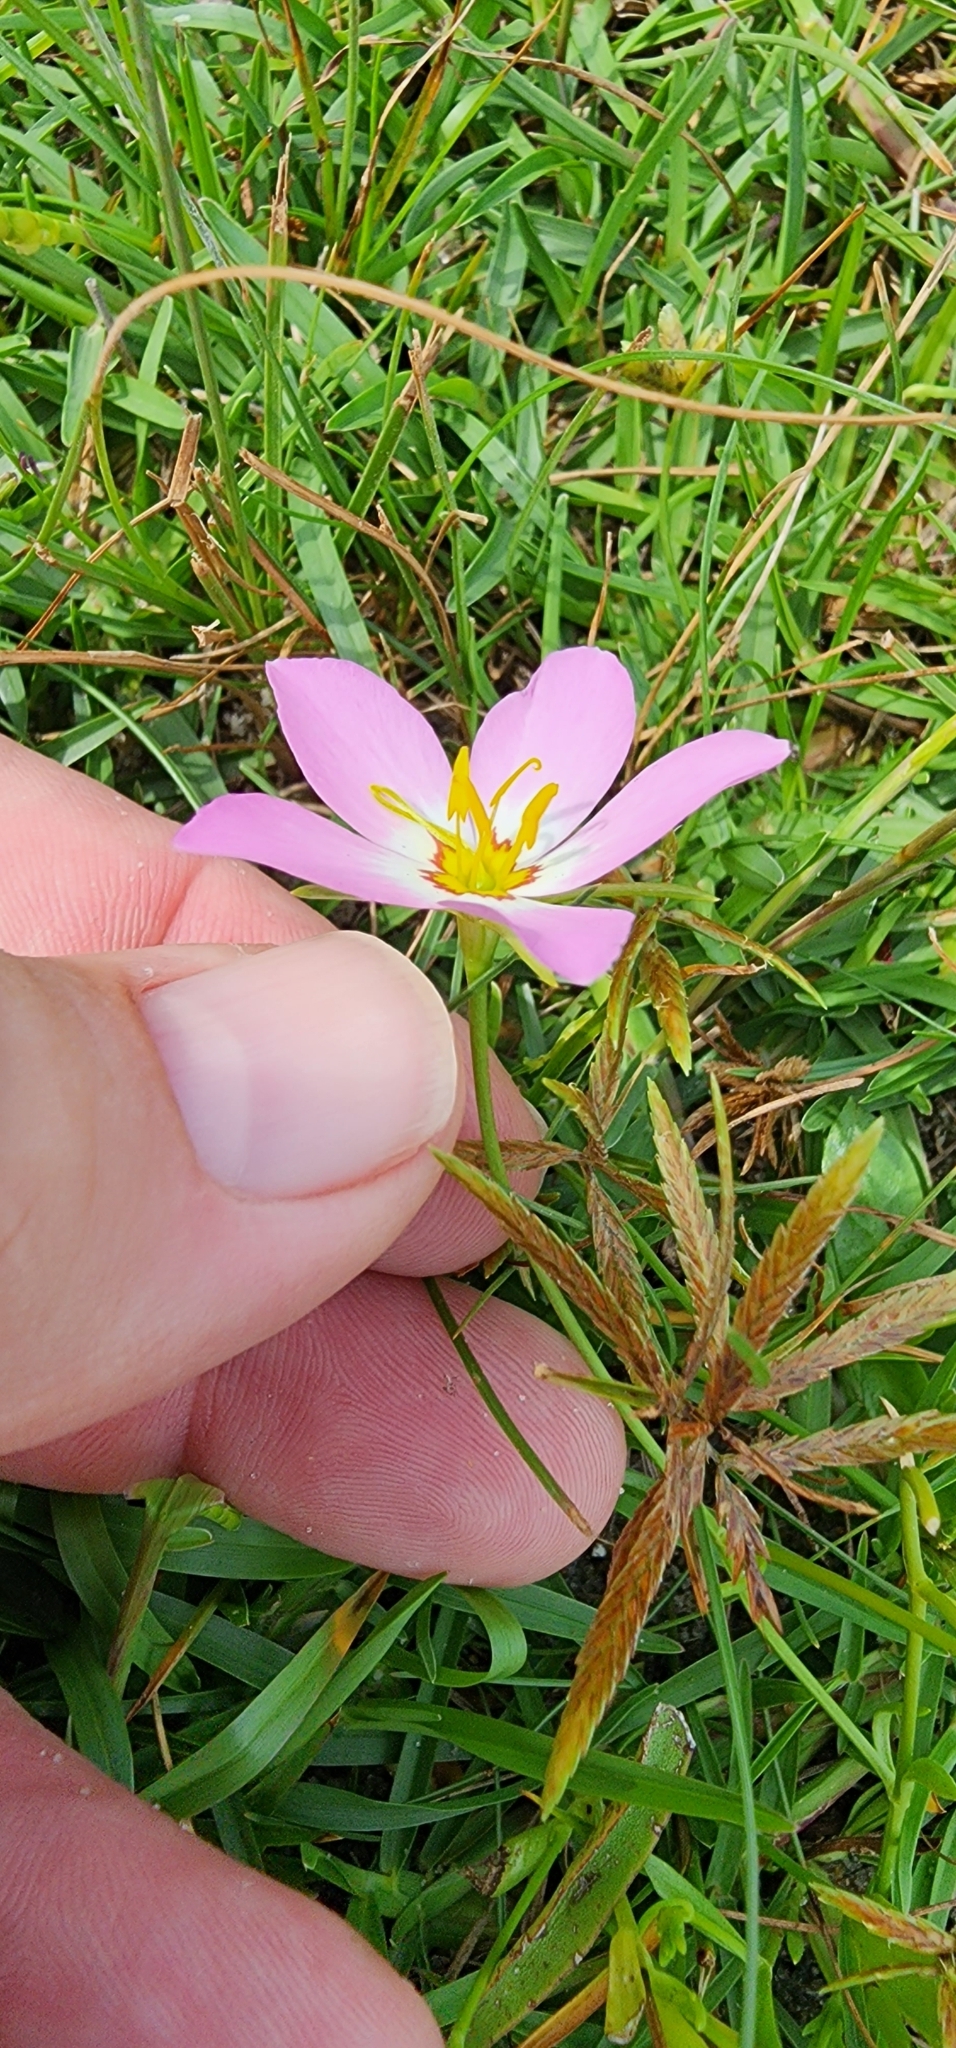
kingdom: Plantae
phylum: Tracheophyta
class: Magnoliopsida
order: Gentianales
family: Gentianaceae
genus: Sabatia
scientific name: Sabatia stellaris
